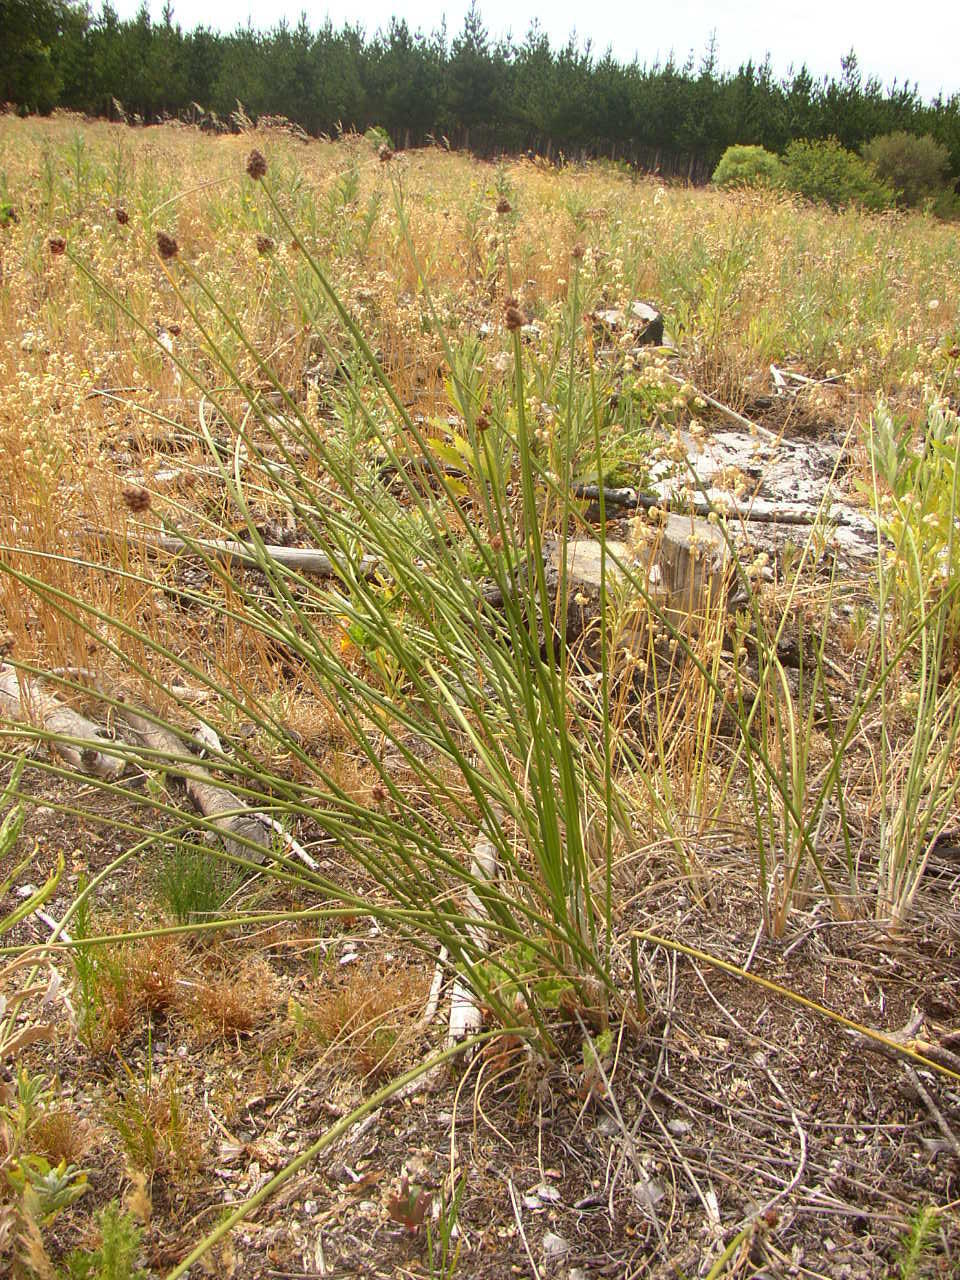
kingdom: Plantae
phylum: Tracheophyta
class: Liliopsida
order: Poales
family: Cyperaceae
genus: Ficinia
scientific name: Ficinia brevifolia
